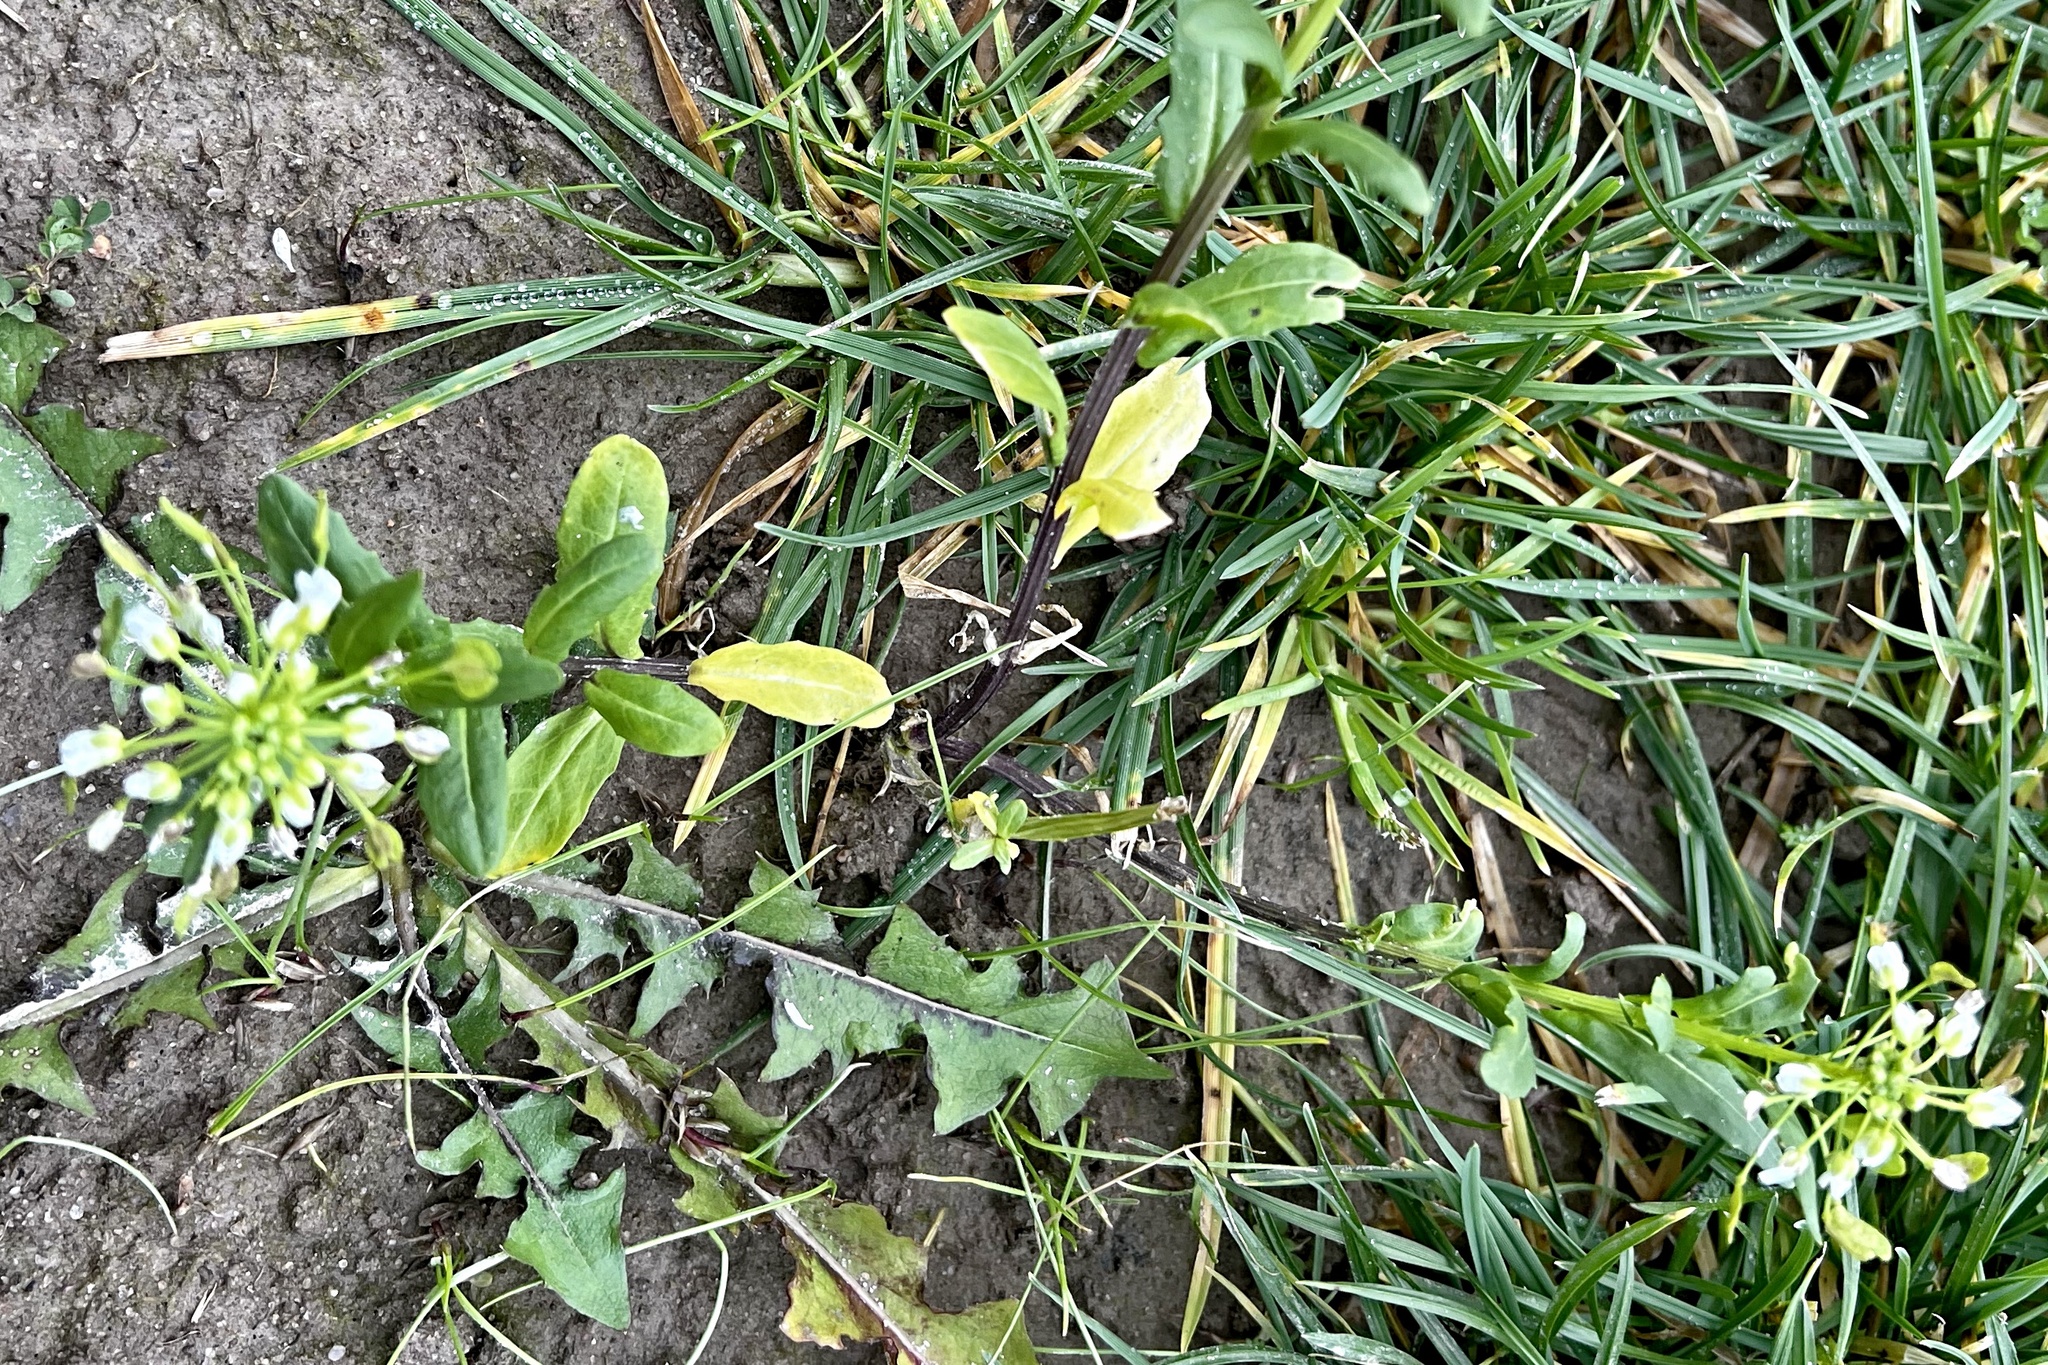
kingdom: Plantae
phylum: Tracheophyta
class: Magnoliopsida
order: Brassicales
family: Brassicaceae
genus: Thlaspi
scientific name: Thlaspi arvense
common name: Field pennycress
